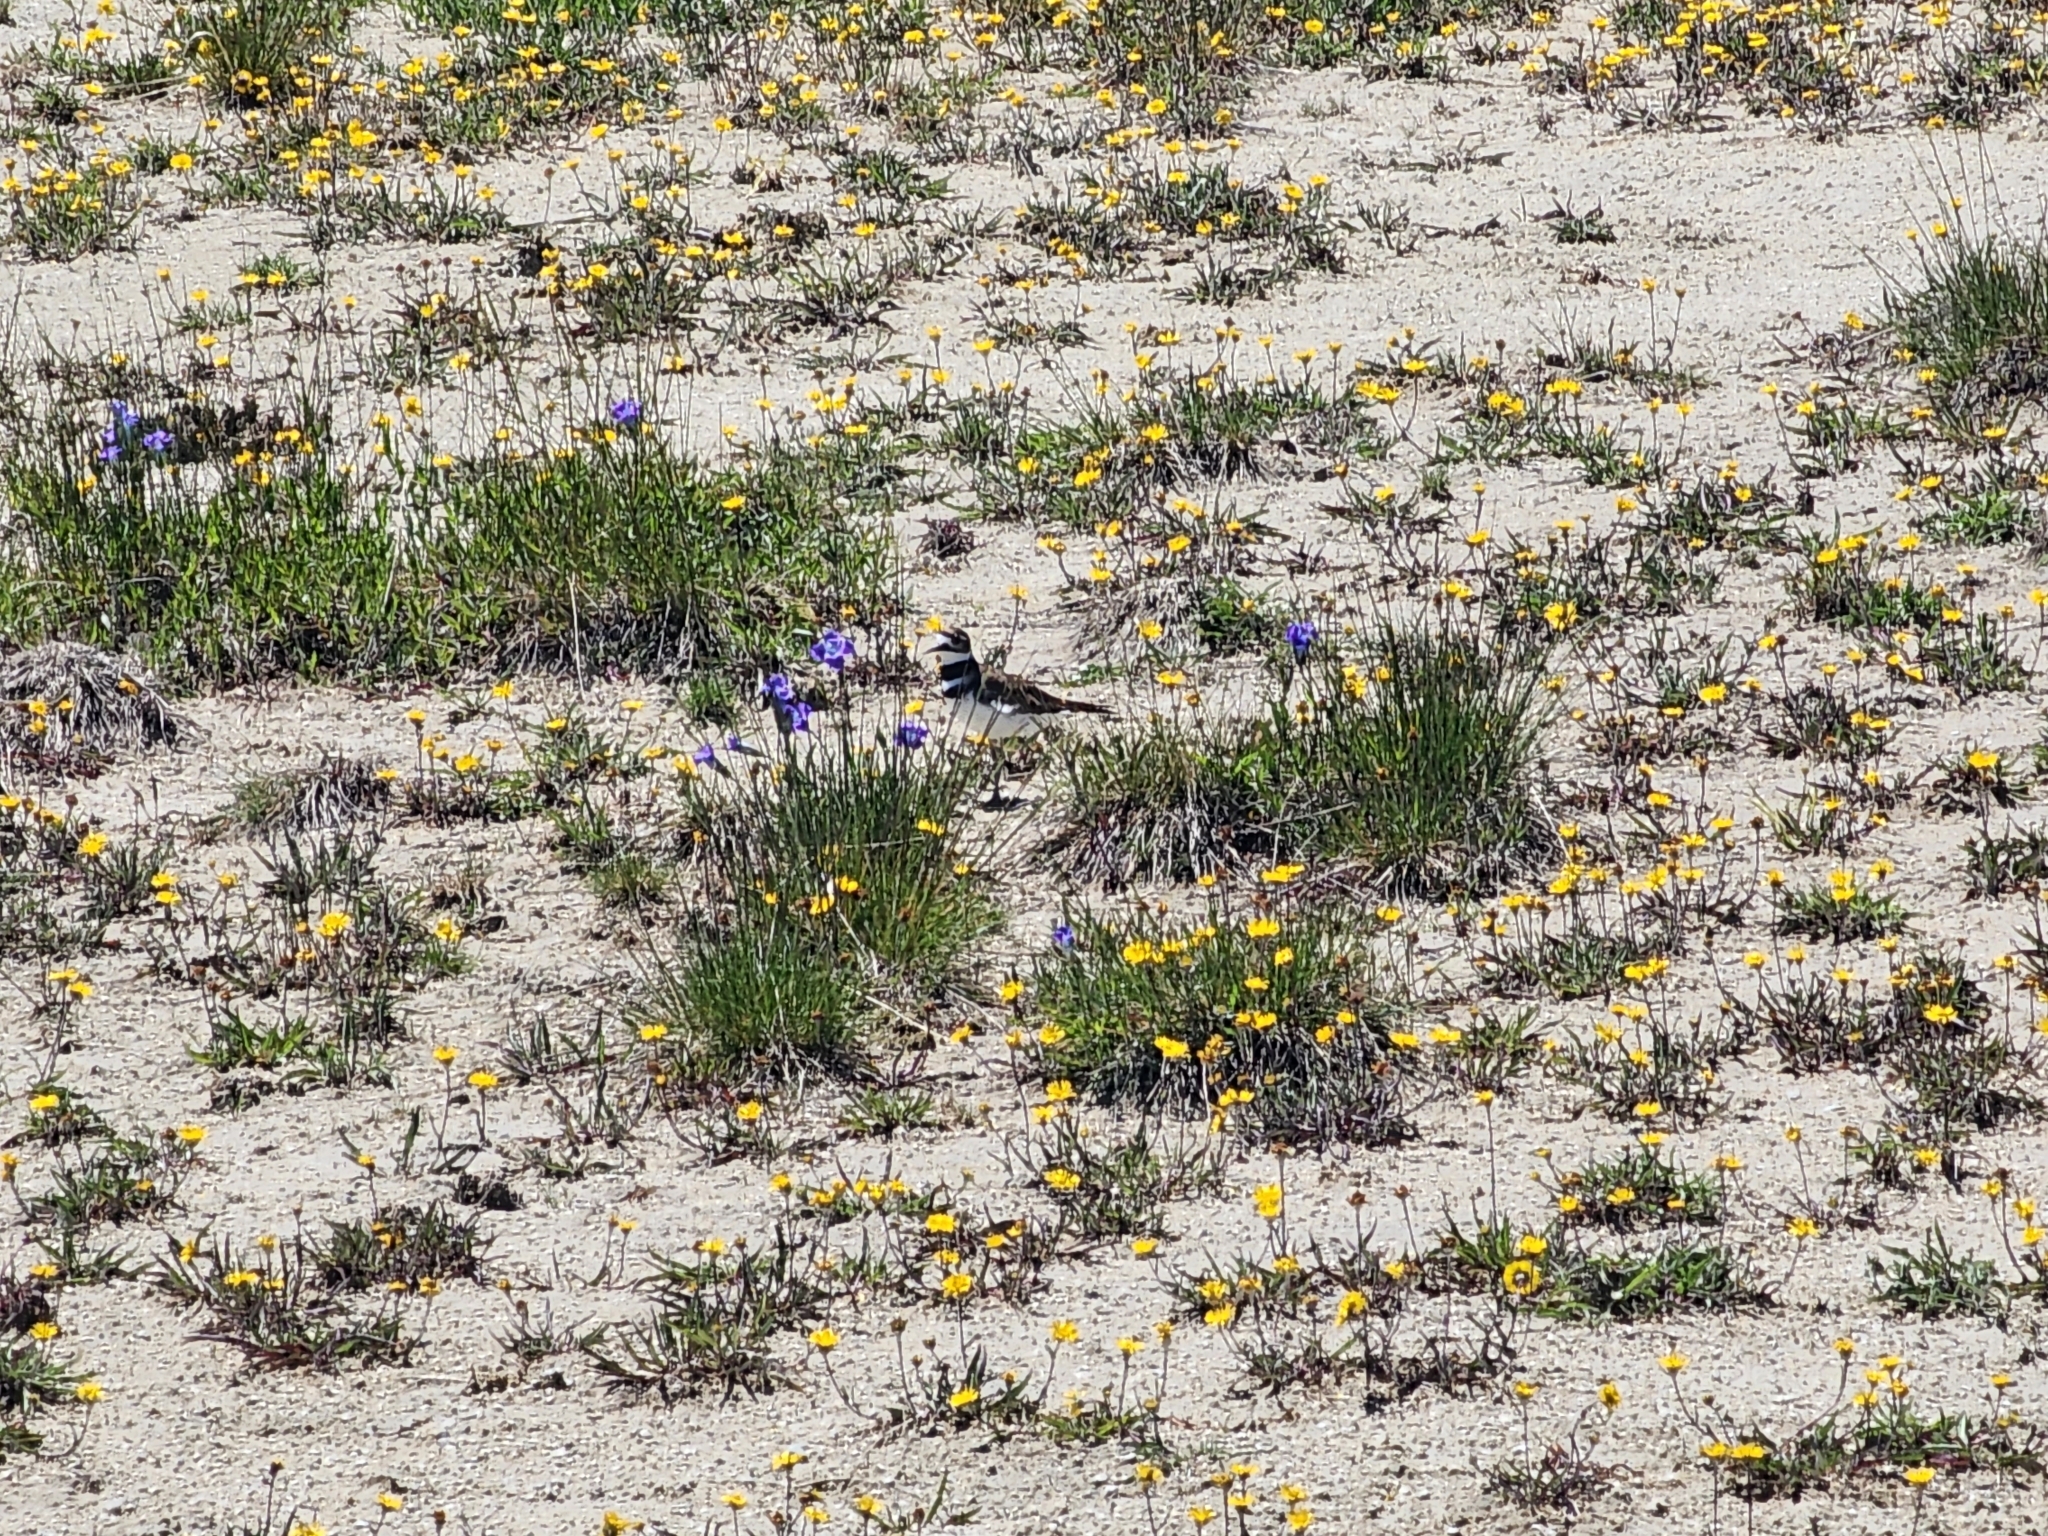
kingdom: Animalia
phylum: Chordata
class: Aves
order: Charadriiformes
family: Charadriidae
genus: Charadrius
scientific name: Charadrius vociferus
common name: Killdeer
